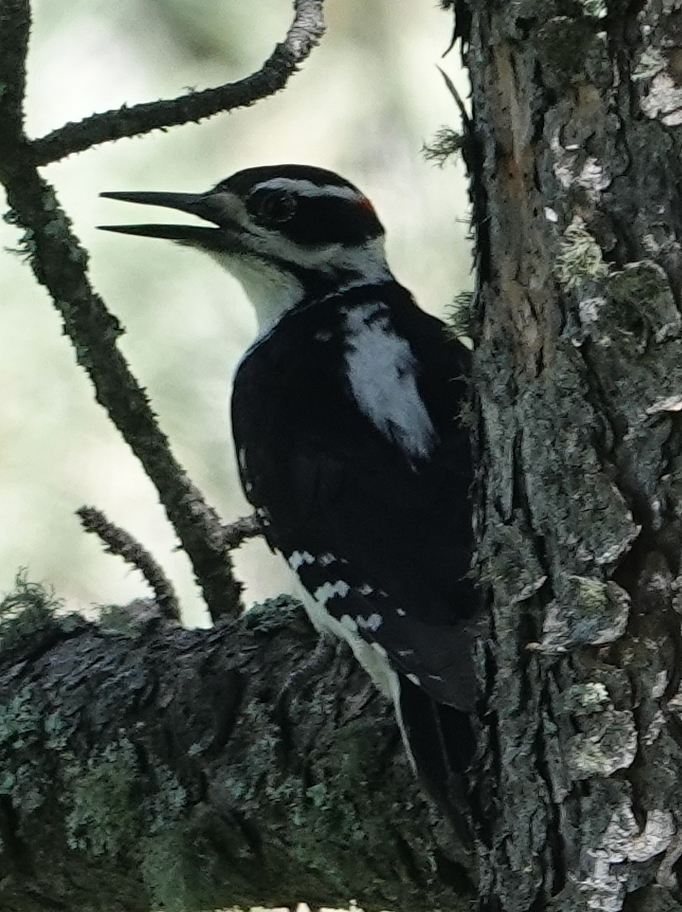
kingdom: Animalia
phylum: Chordata
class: Aves
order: Piciformes
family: Picidae
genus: Leuconotopicus
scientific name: Leuconotopicus villosus
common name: Hairy woodpecker
